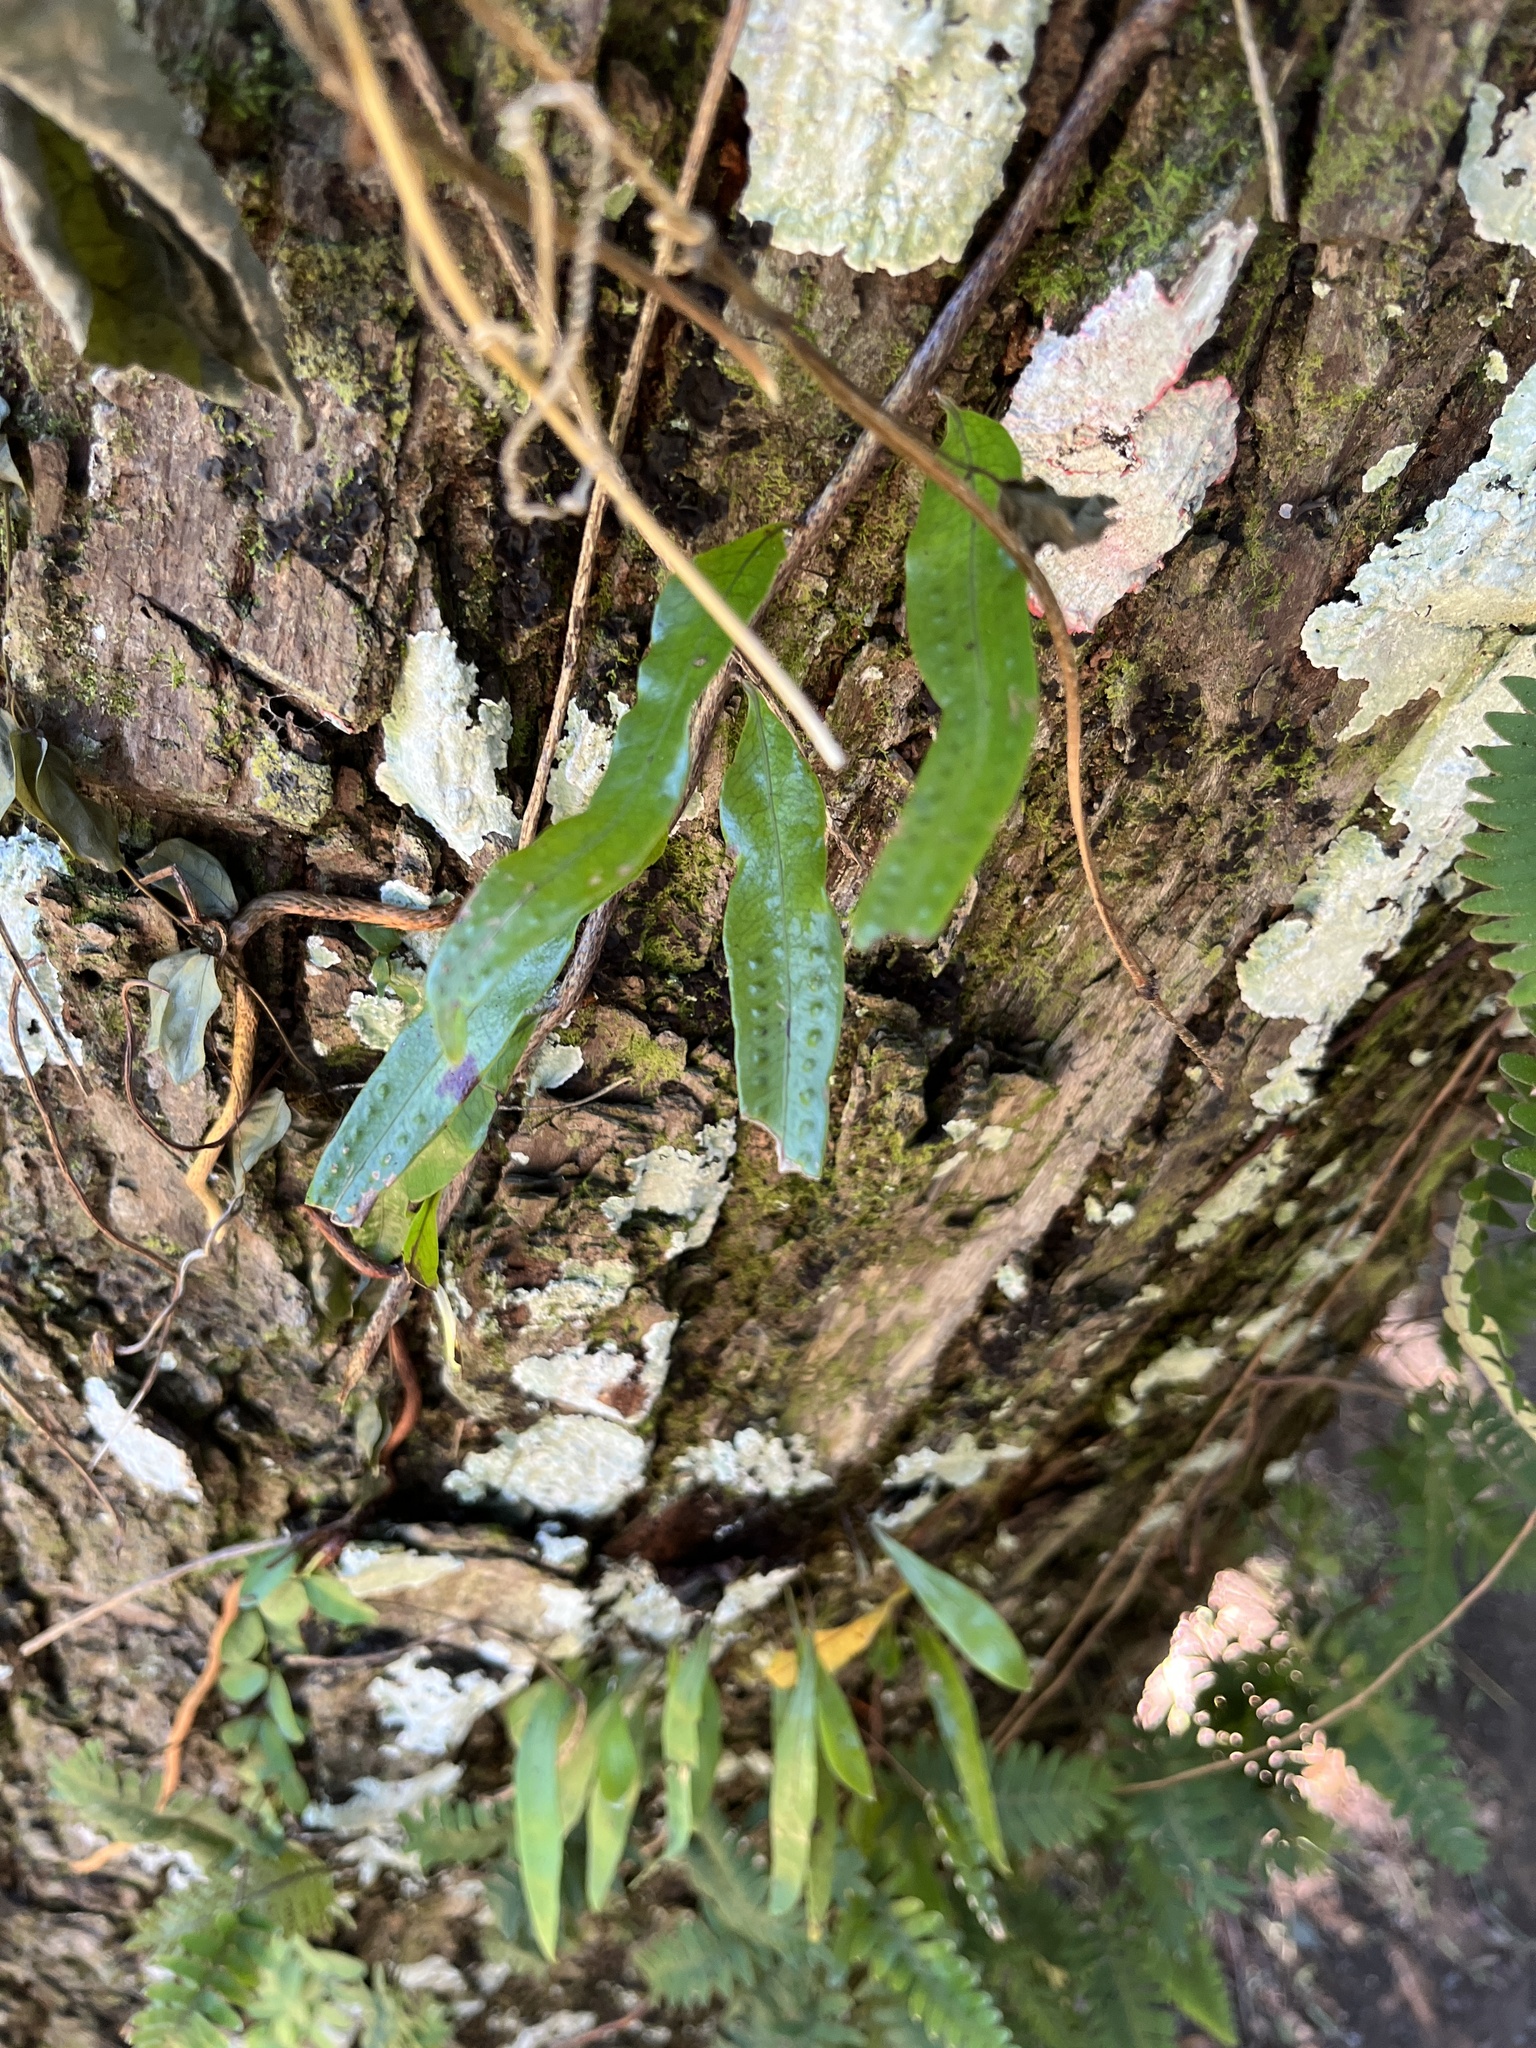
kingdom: Plantae
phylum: Tracheophyta
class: Polypodiopsida
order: Polypodiales
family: Polypodiaceae
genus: Microgramma
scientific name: Microgramma lycopodioides
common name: Bastard catclaw
